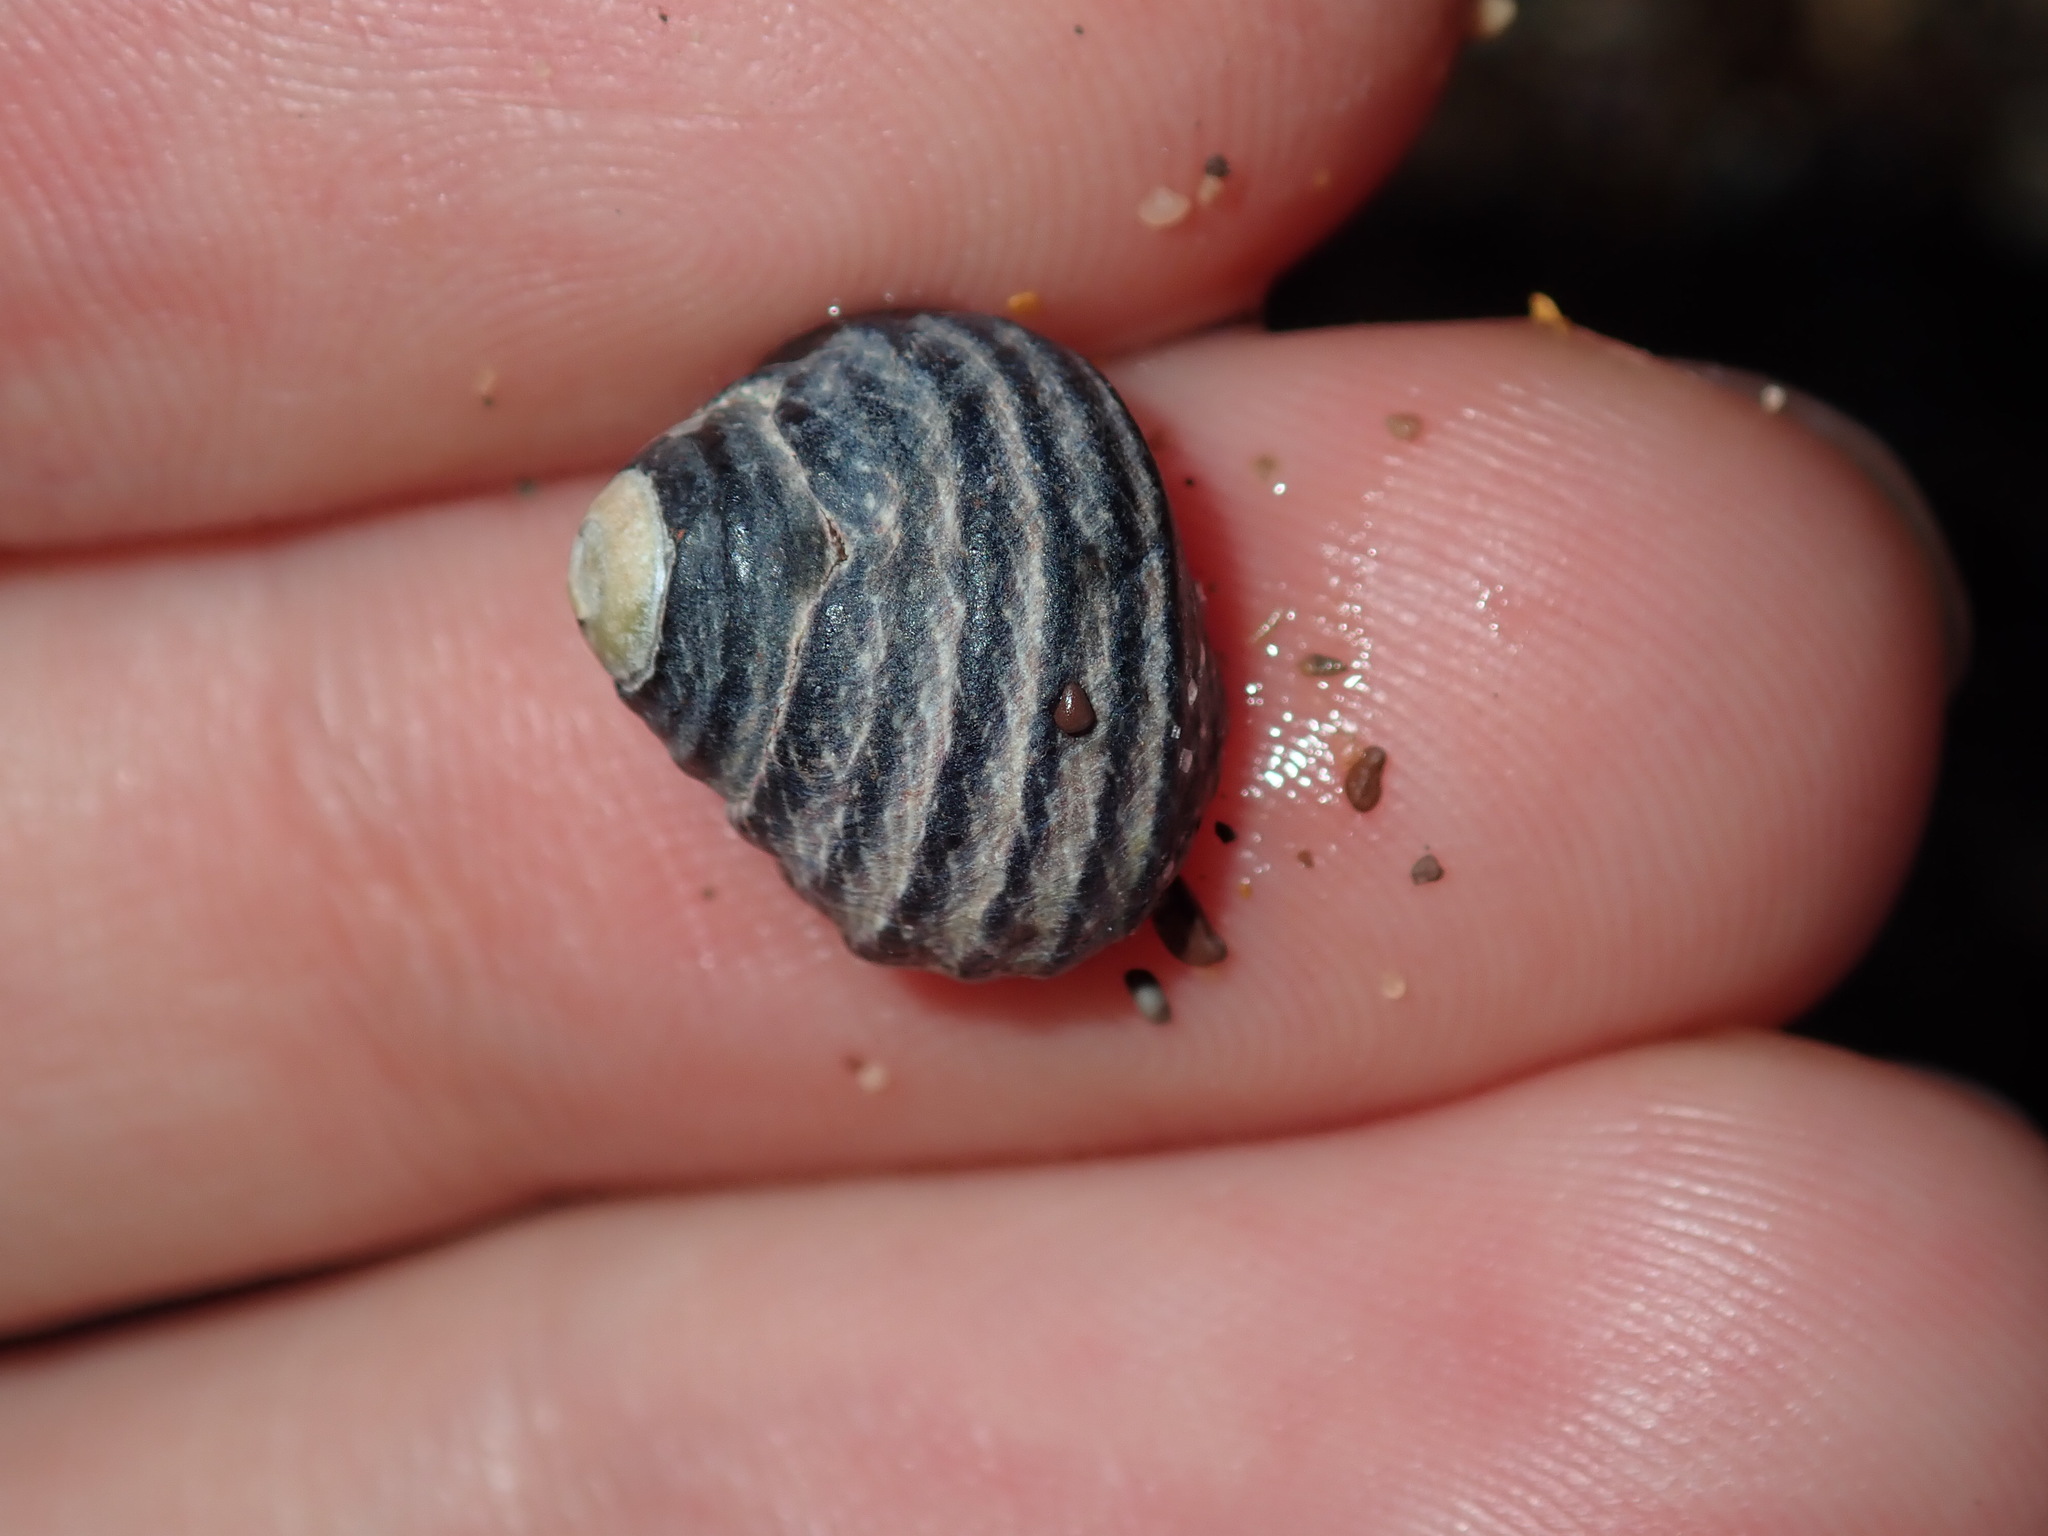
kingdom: Animalia
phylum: Mollusca
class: Gastropoda
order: Trochida
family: Trochidae
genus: Austrocochlea
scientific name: Austrocochlea constricta
